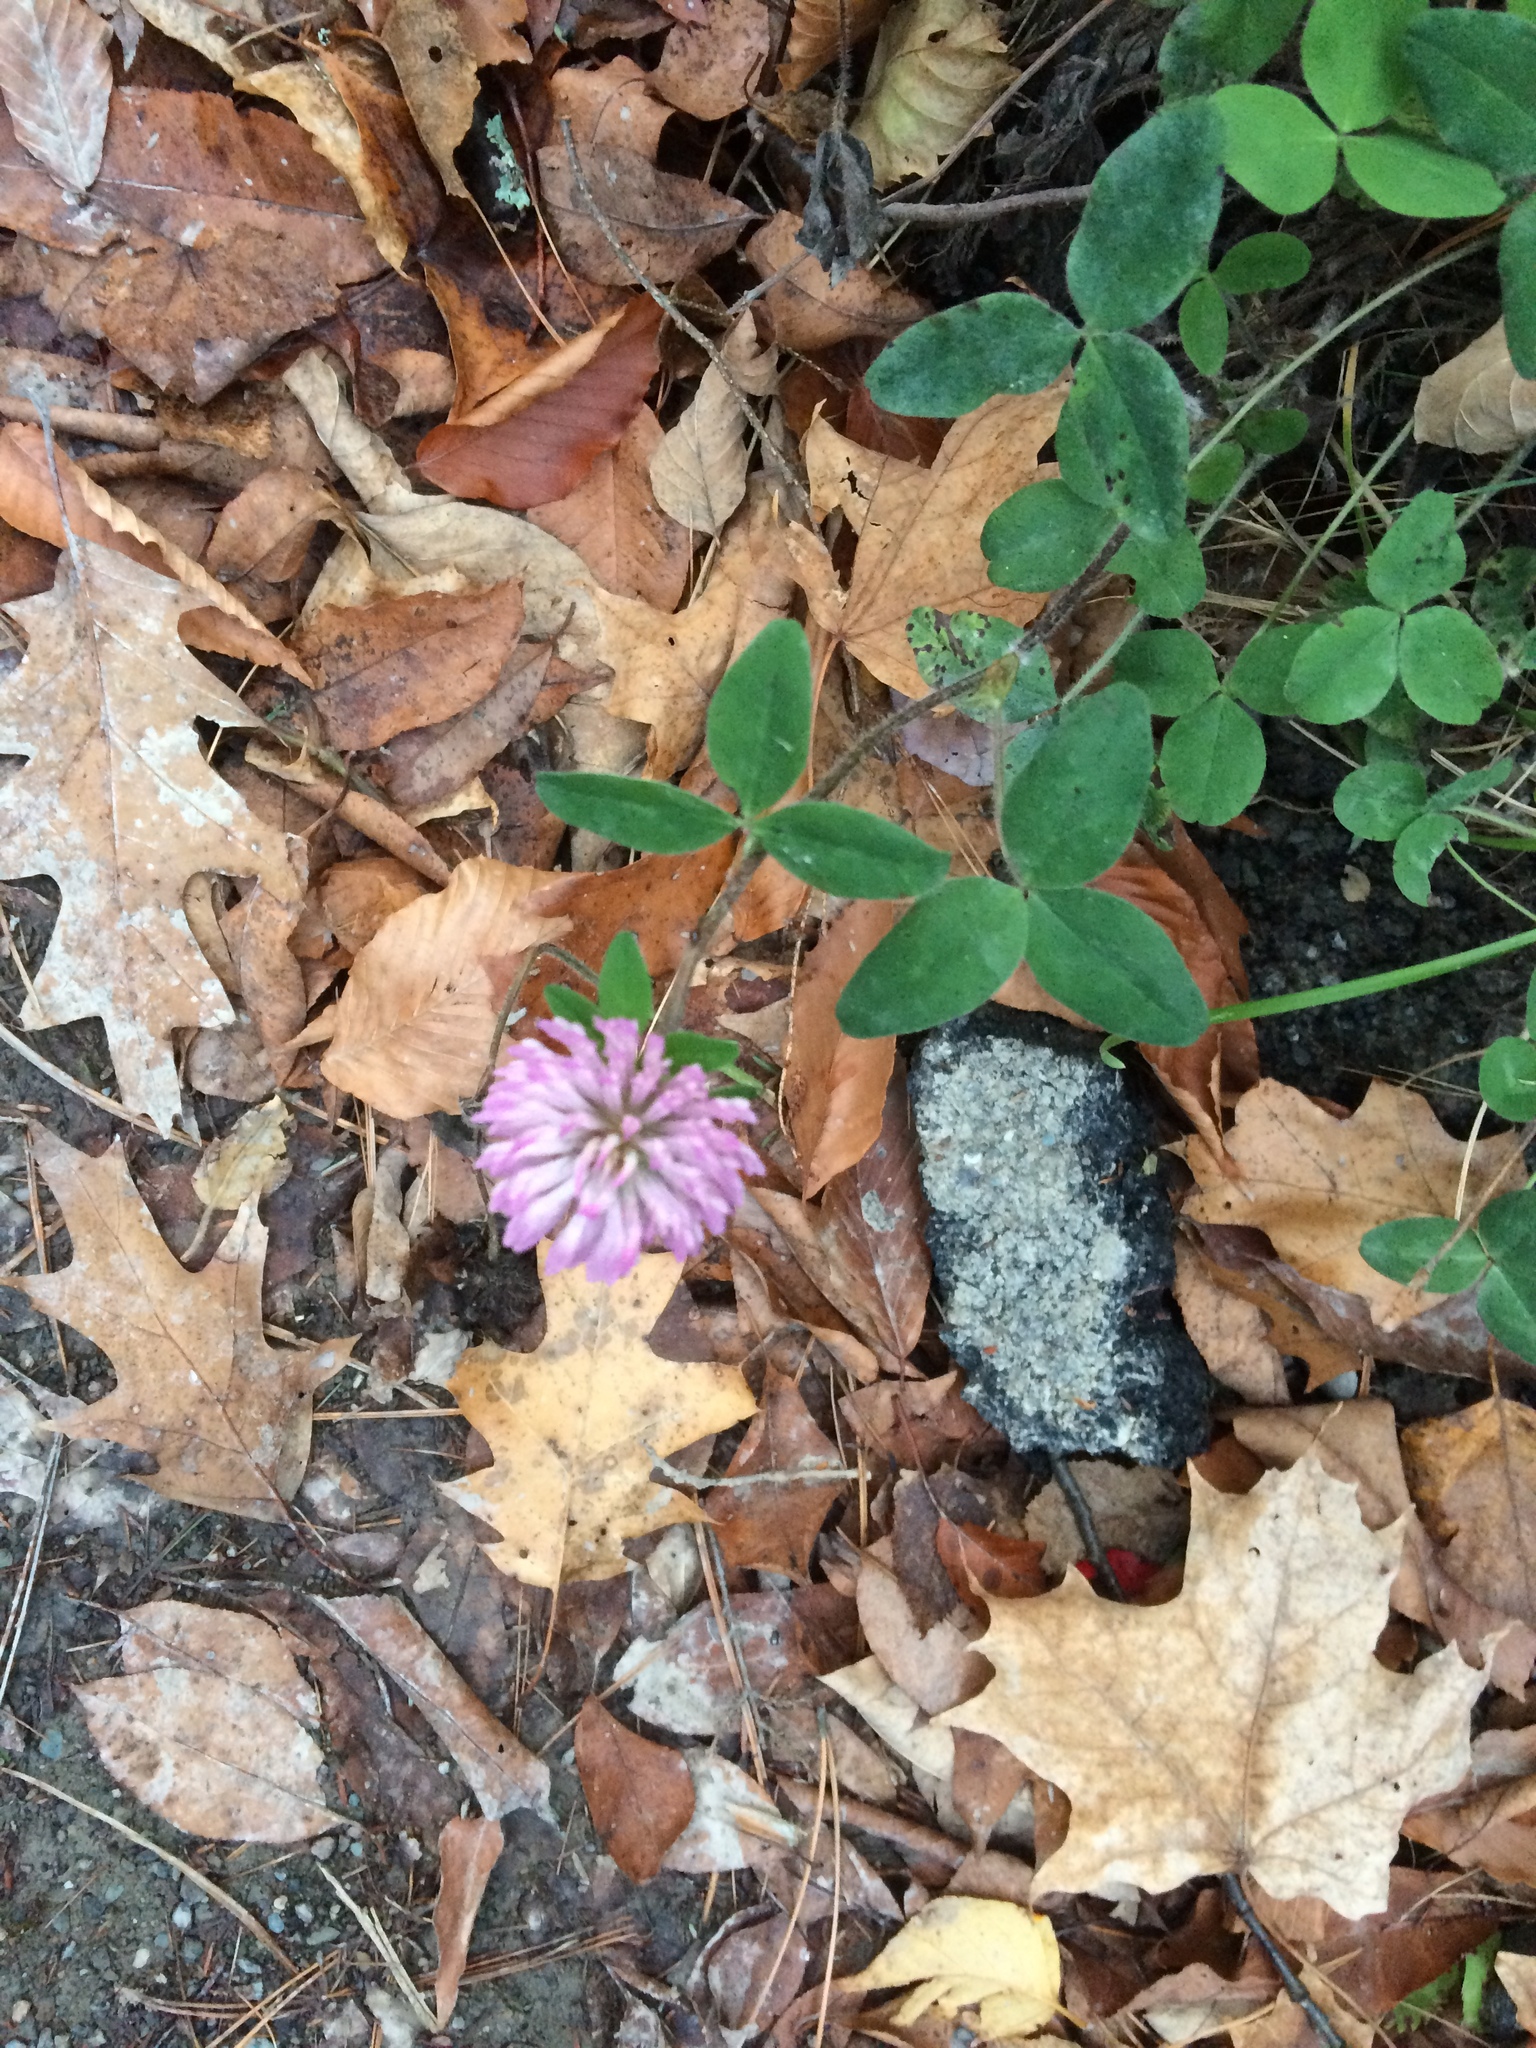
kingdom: Plantae
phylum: Tracheophyta
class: Magnoliopsida
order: Fabales
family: Fabaceae
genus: Trifolium
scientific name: Trifolium pratense
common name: Red clover
